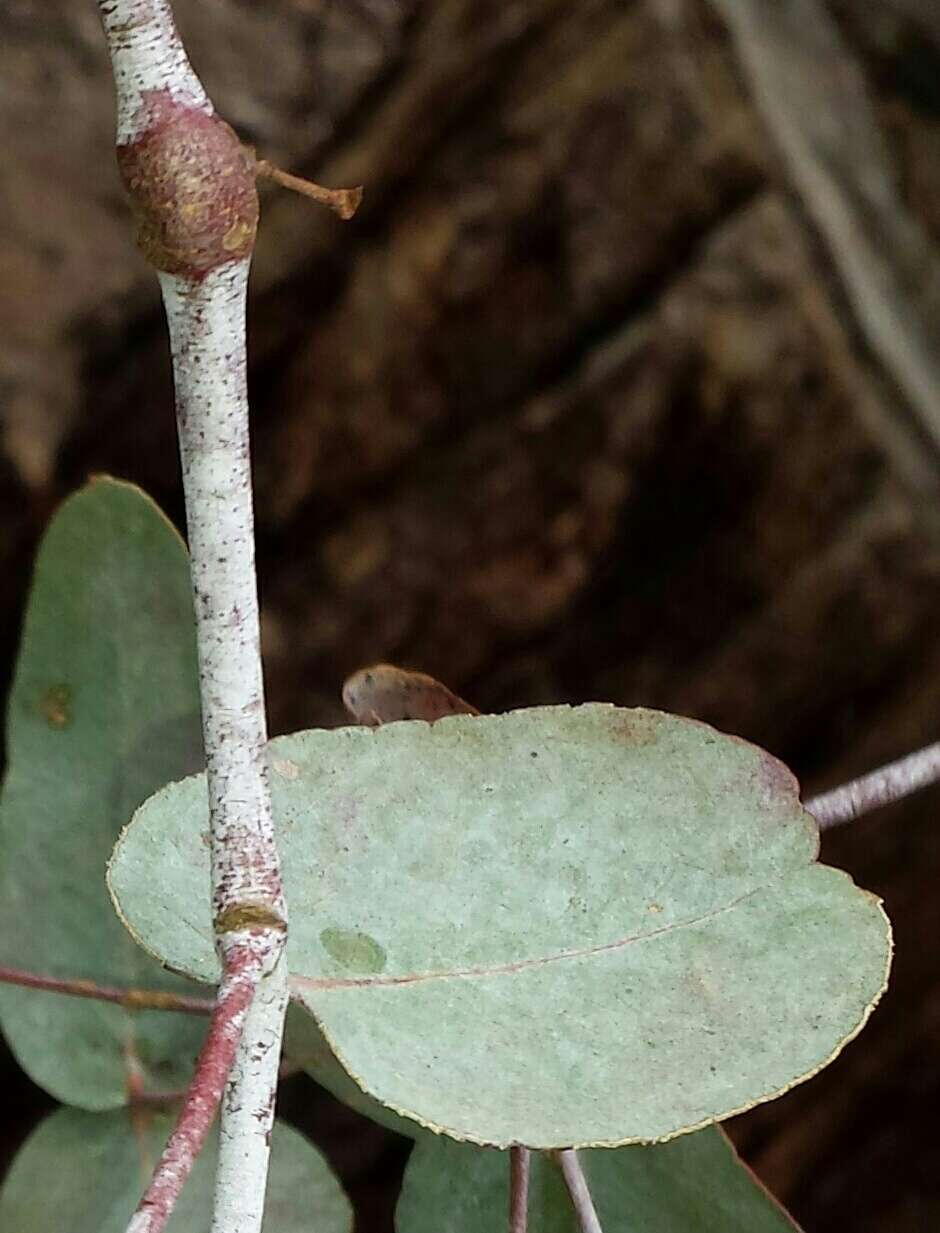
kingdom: Plantae
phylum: Tracheophyta
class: Magnoliopsida
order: Myrtales
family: Myrtaceae
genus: Eucalyptus
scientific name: Eucalyptus leucoxylon
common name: Blue gum
